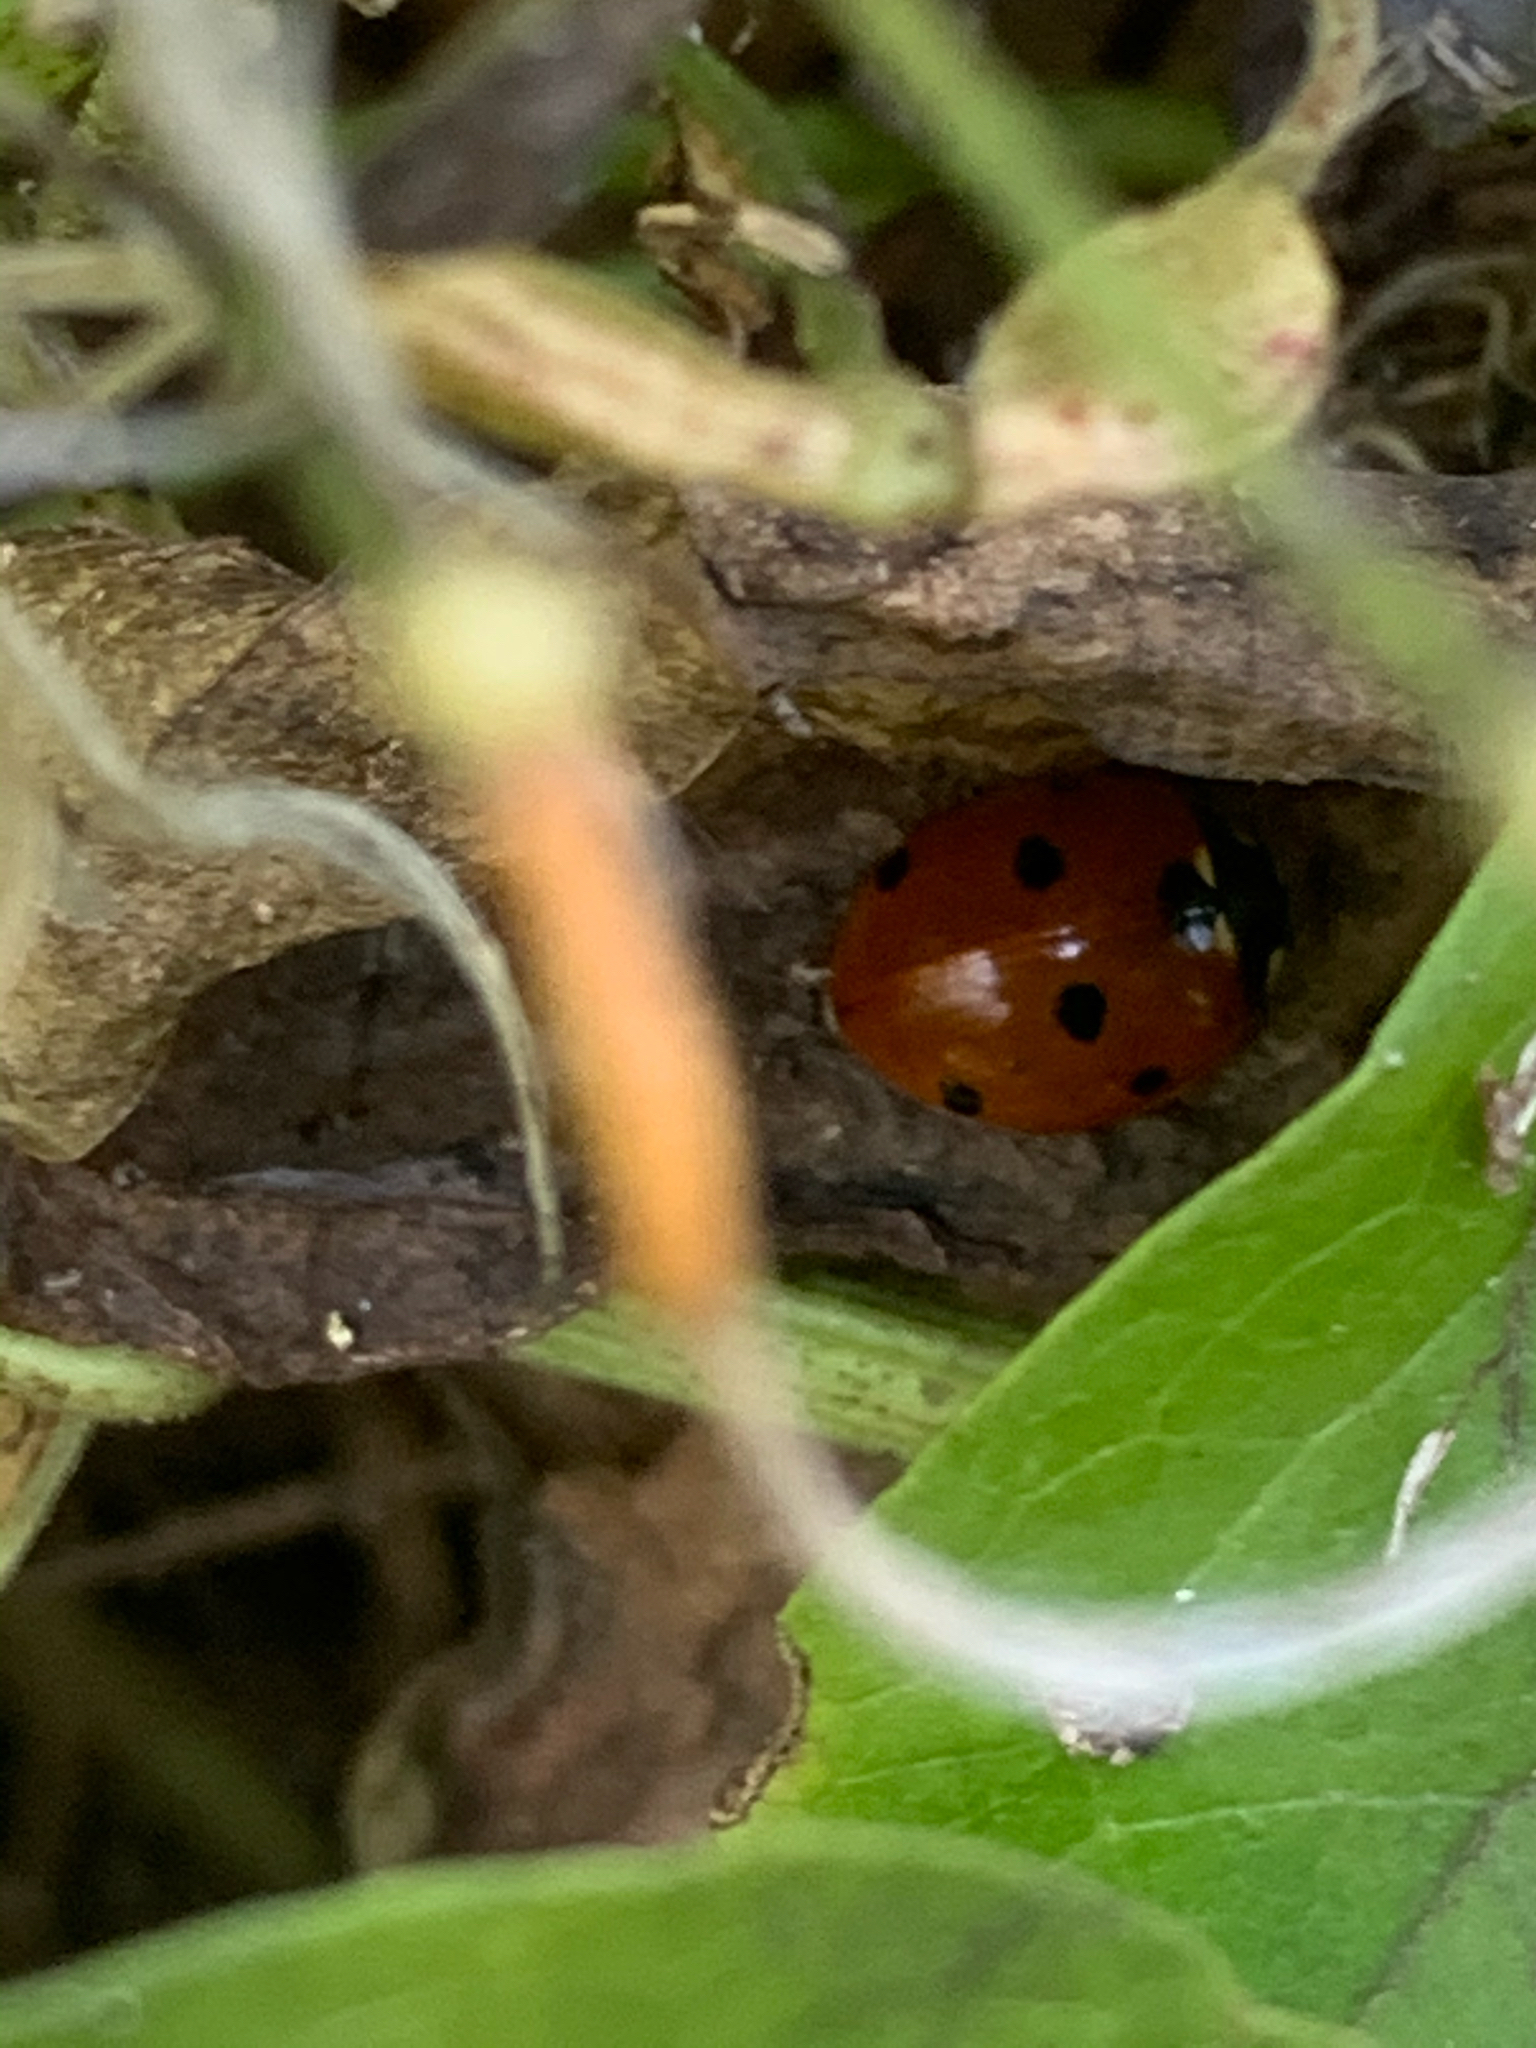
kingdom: Animalia
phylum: Arthropoda
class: Insecta
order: Coleoptera
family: Coccinellidae
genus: Coccinella
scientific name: Coccinella septempunctata
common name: Sevenspotted lady beetle
